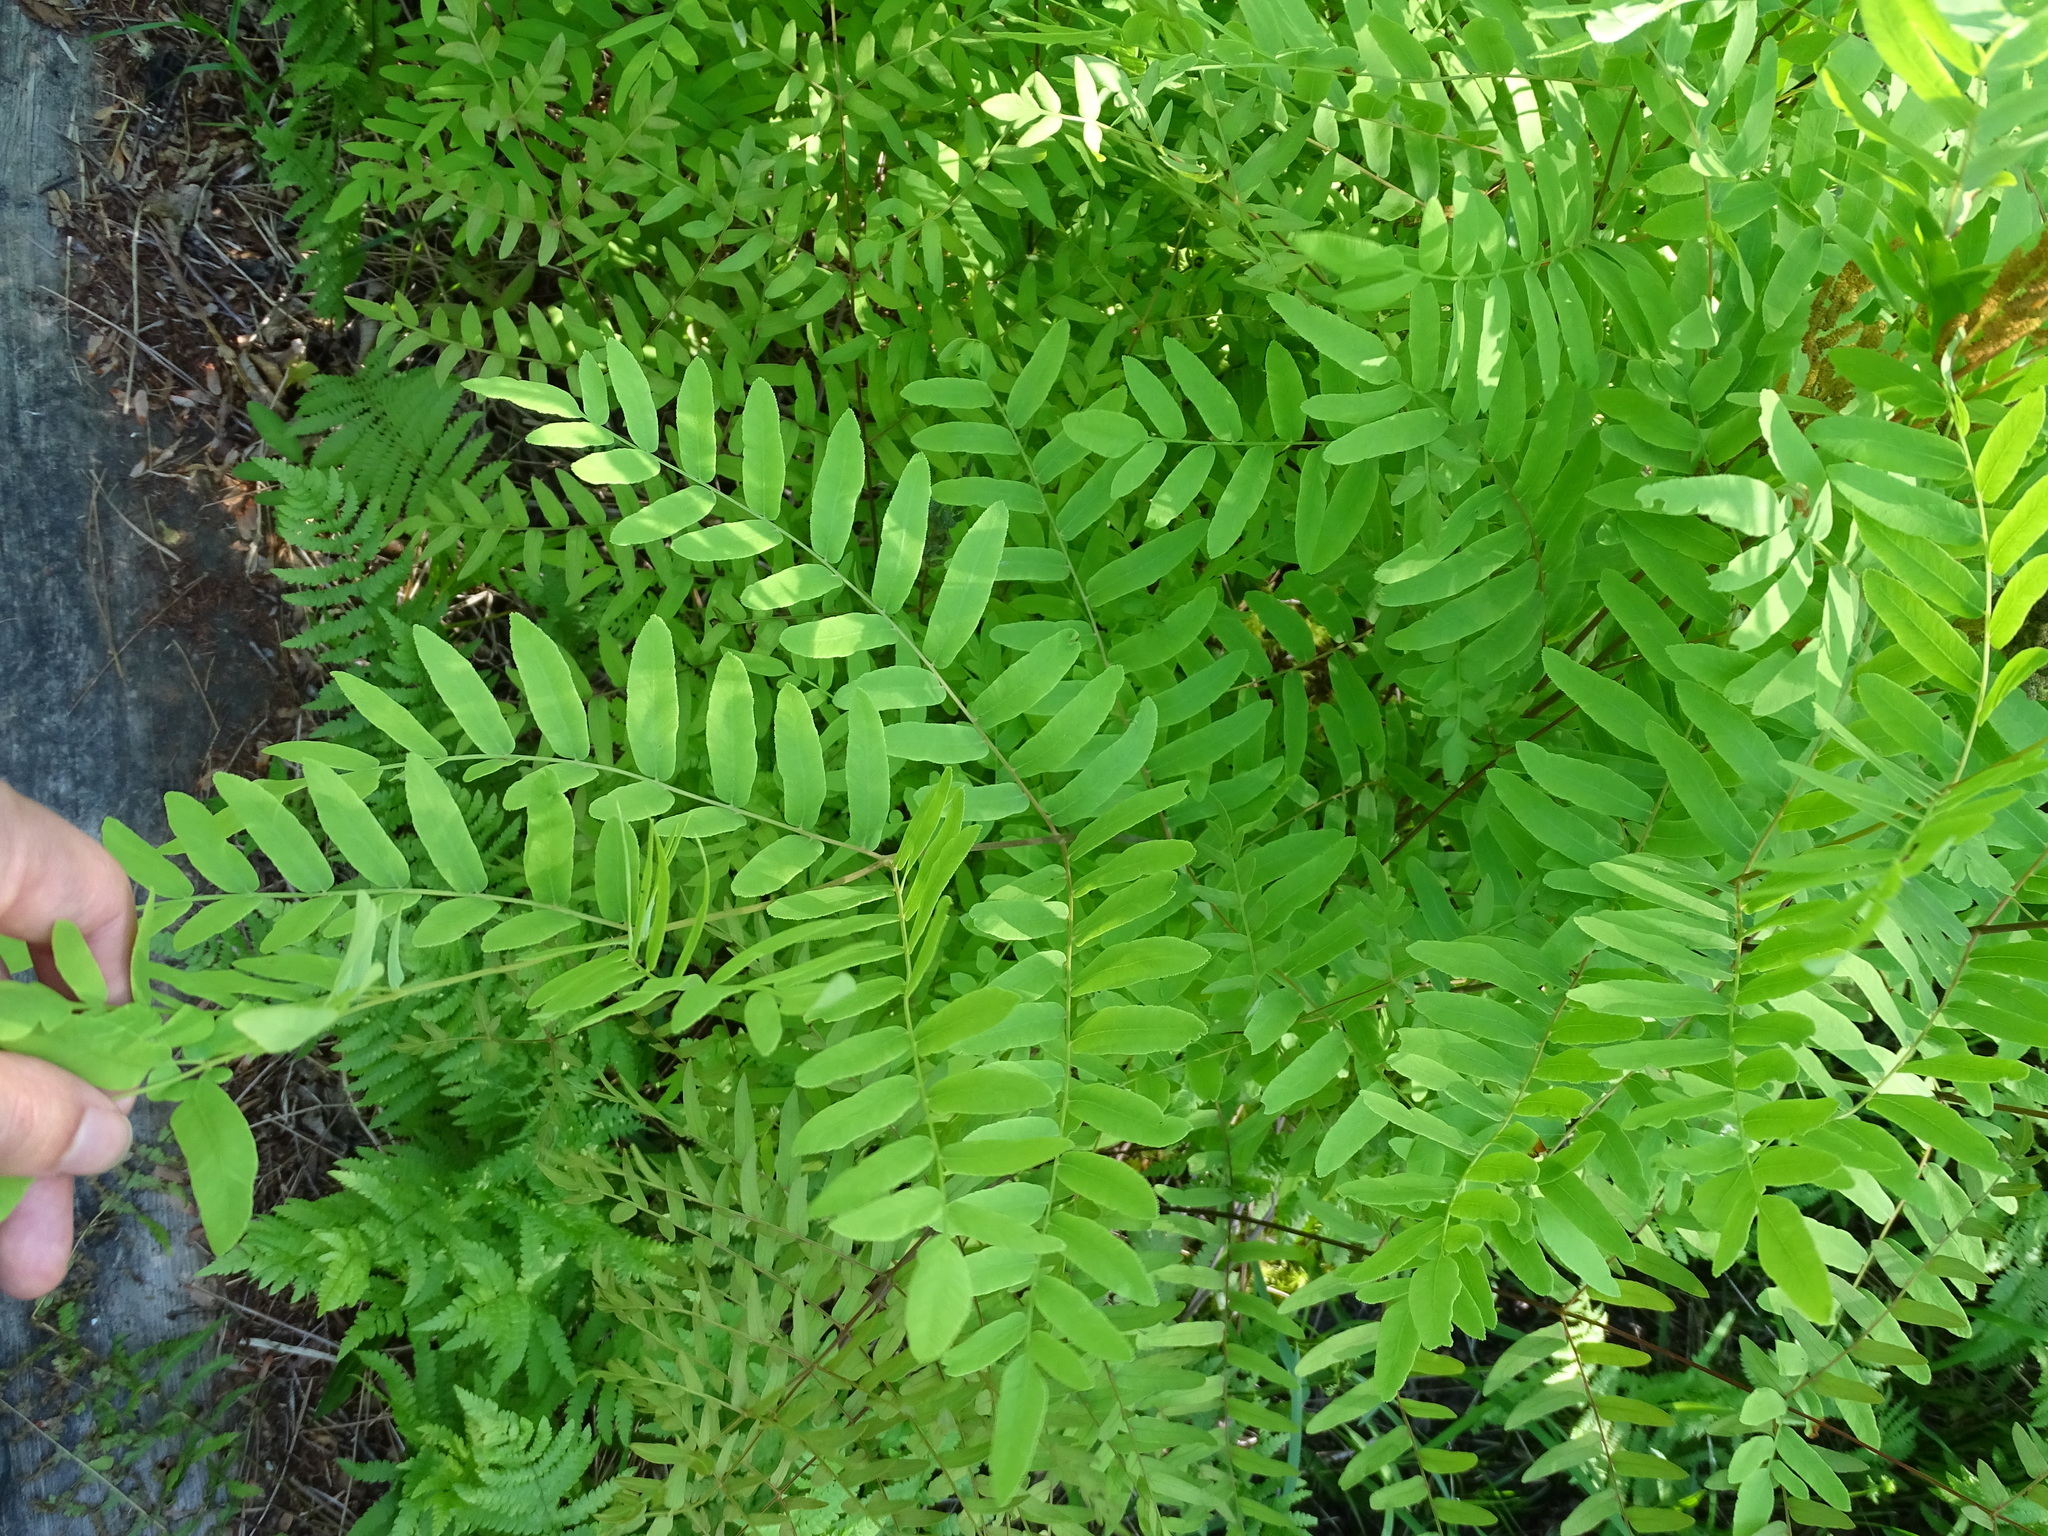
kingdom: Plantae
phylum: Tracheophyta
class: Polypodiopsida
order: Osmundales
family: Osmundaceae
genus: Osmunda
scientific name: Osmunda spectabilis
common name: American royal fern
